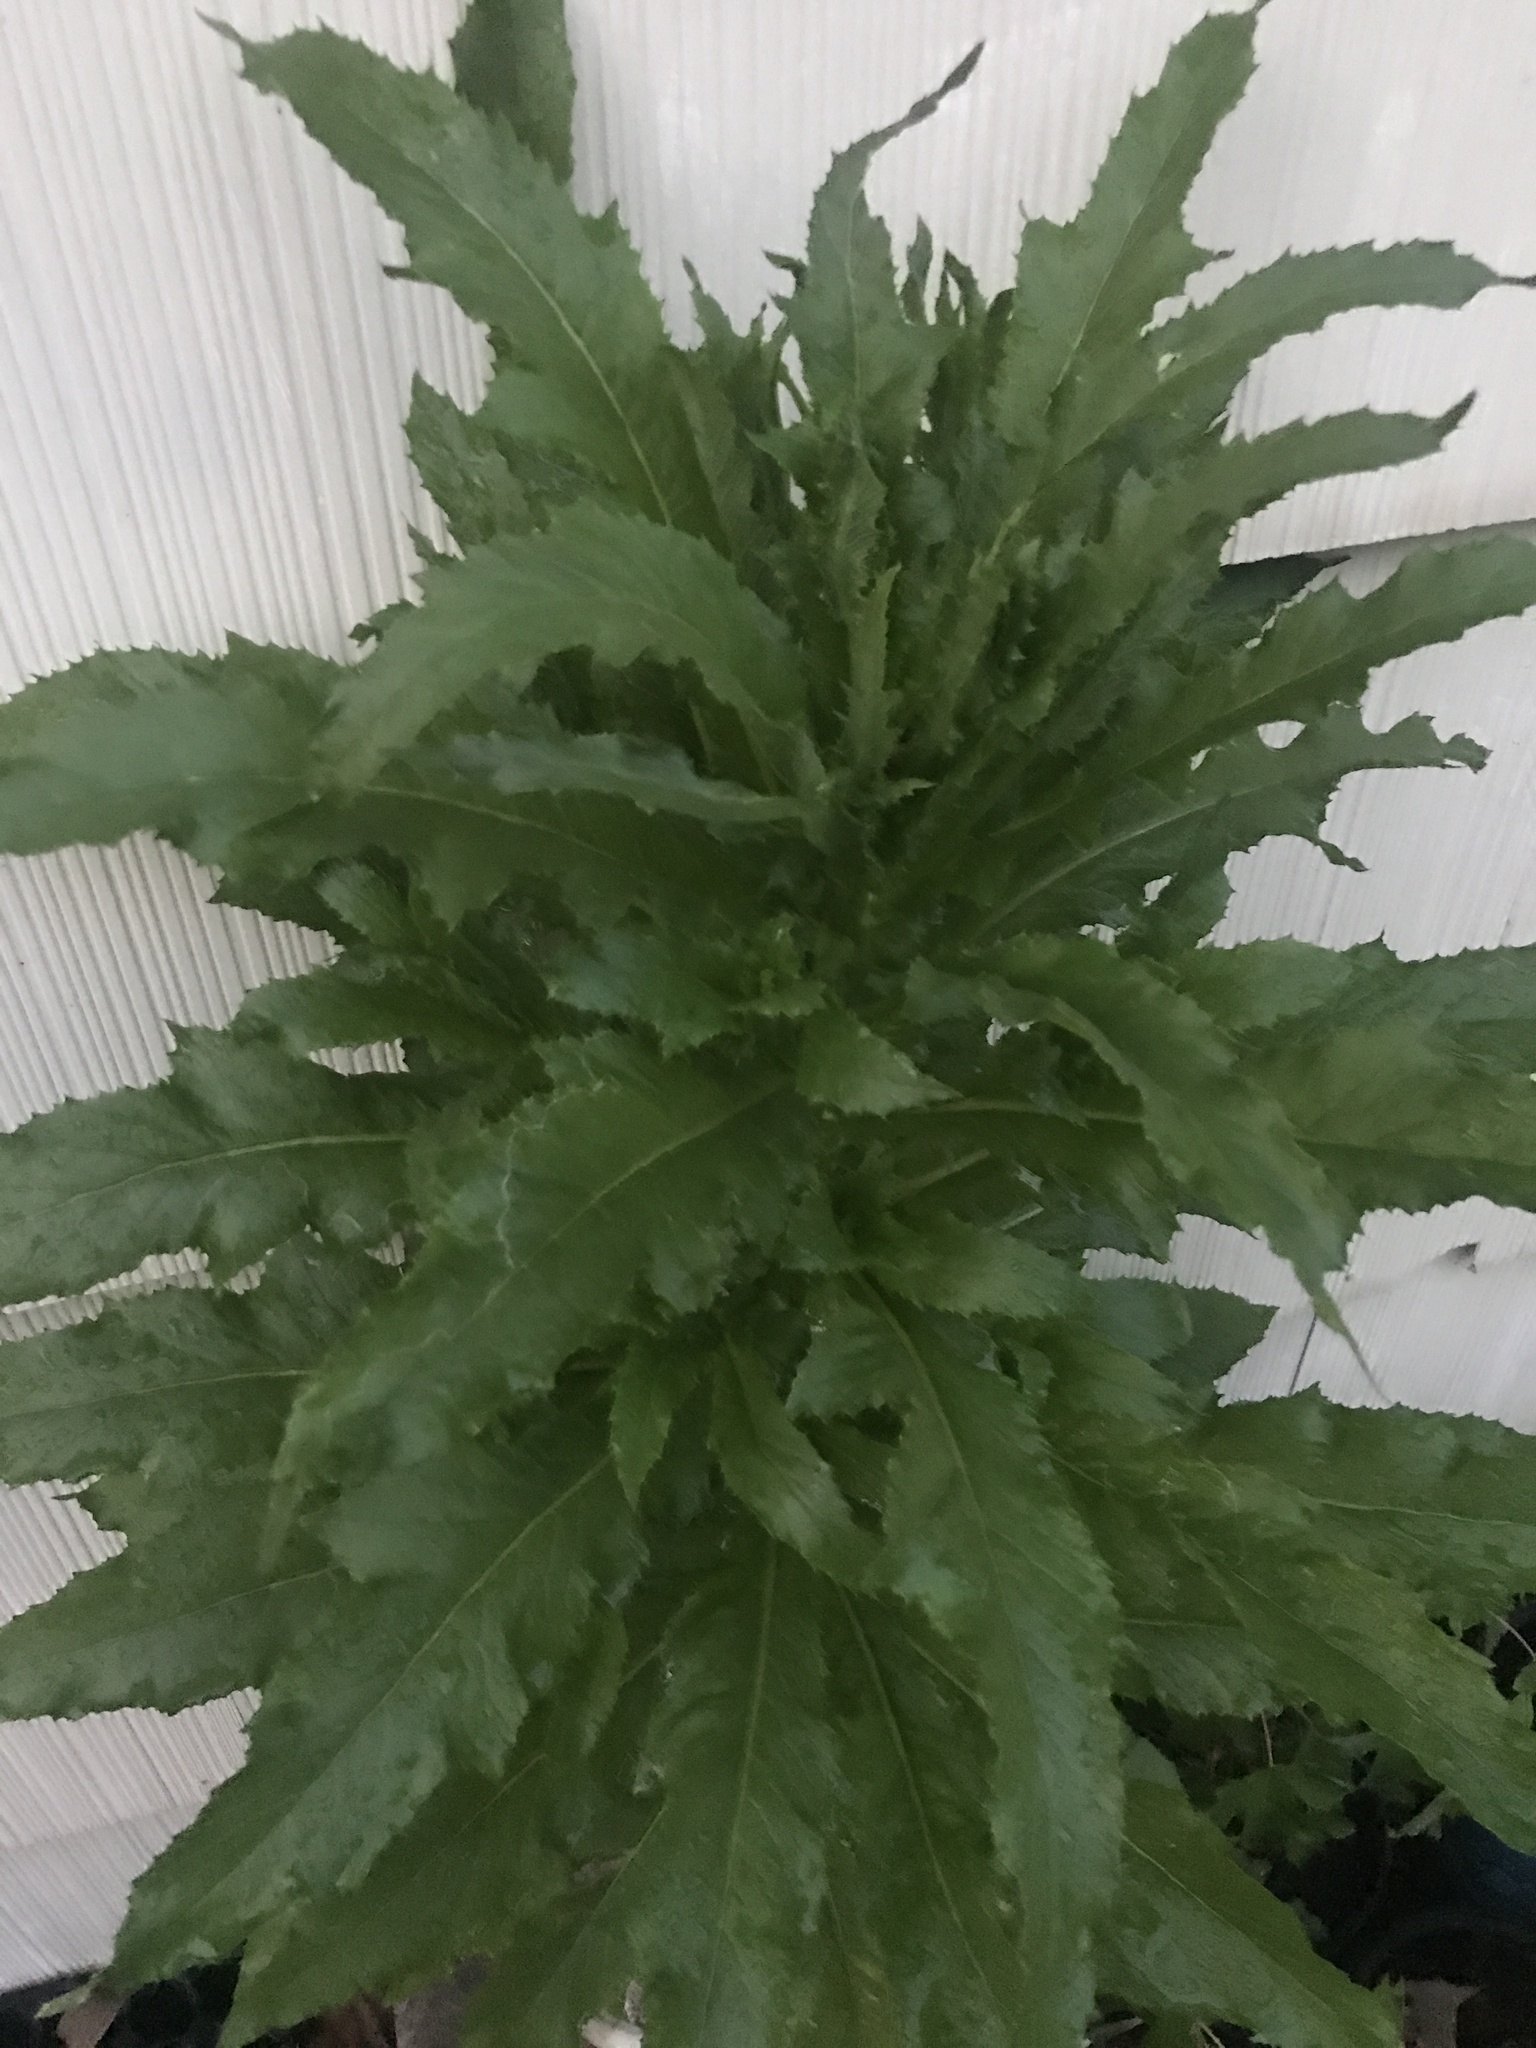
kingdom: Plantae
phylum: Tracheophyta
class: Magnoliopsida
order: Asterales
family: Asteraceae
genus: Erechtites
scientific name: Erechtites hieraciifolius
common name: American burnweed
